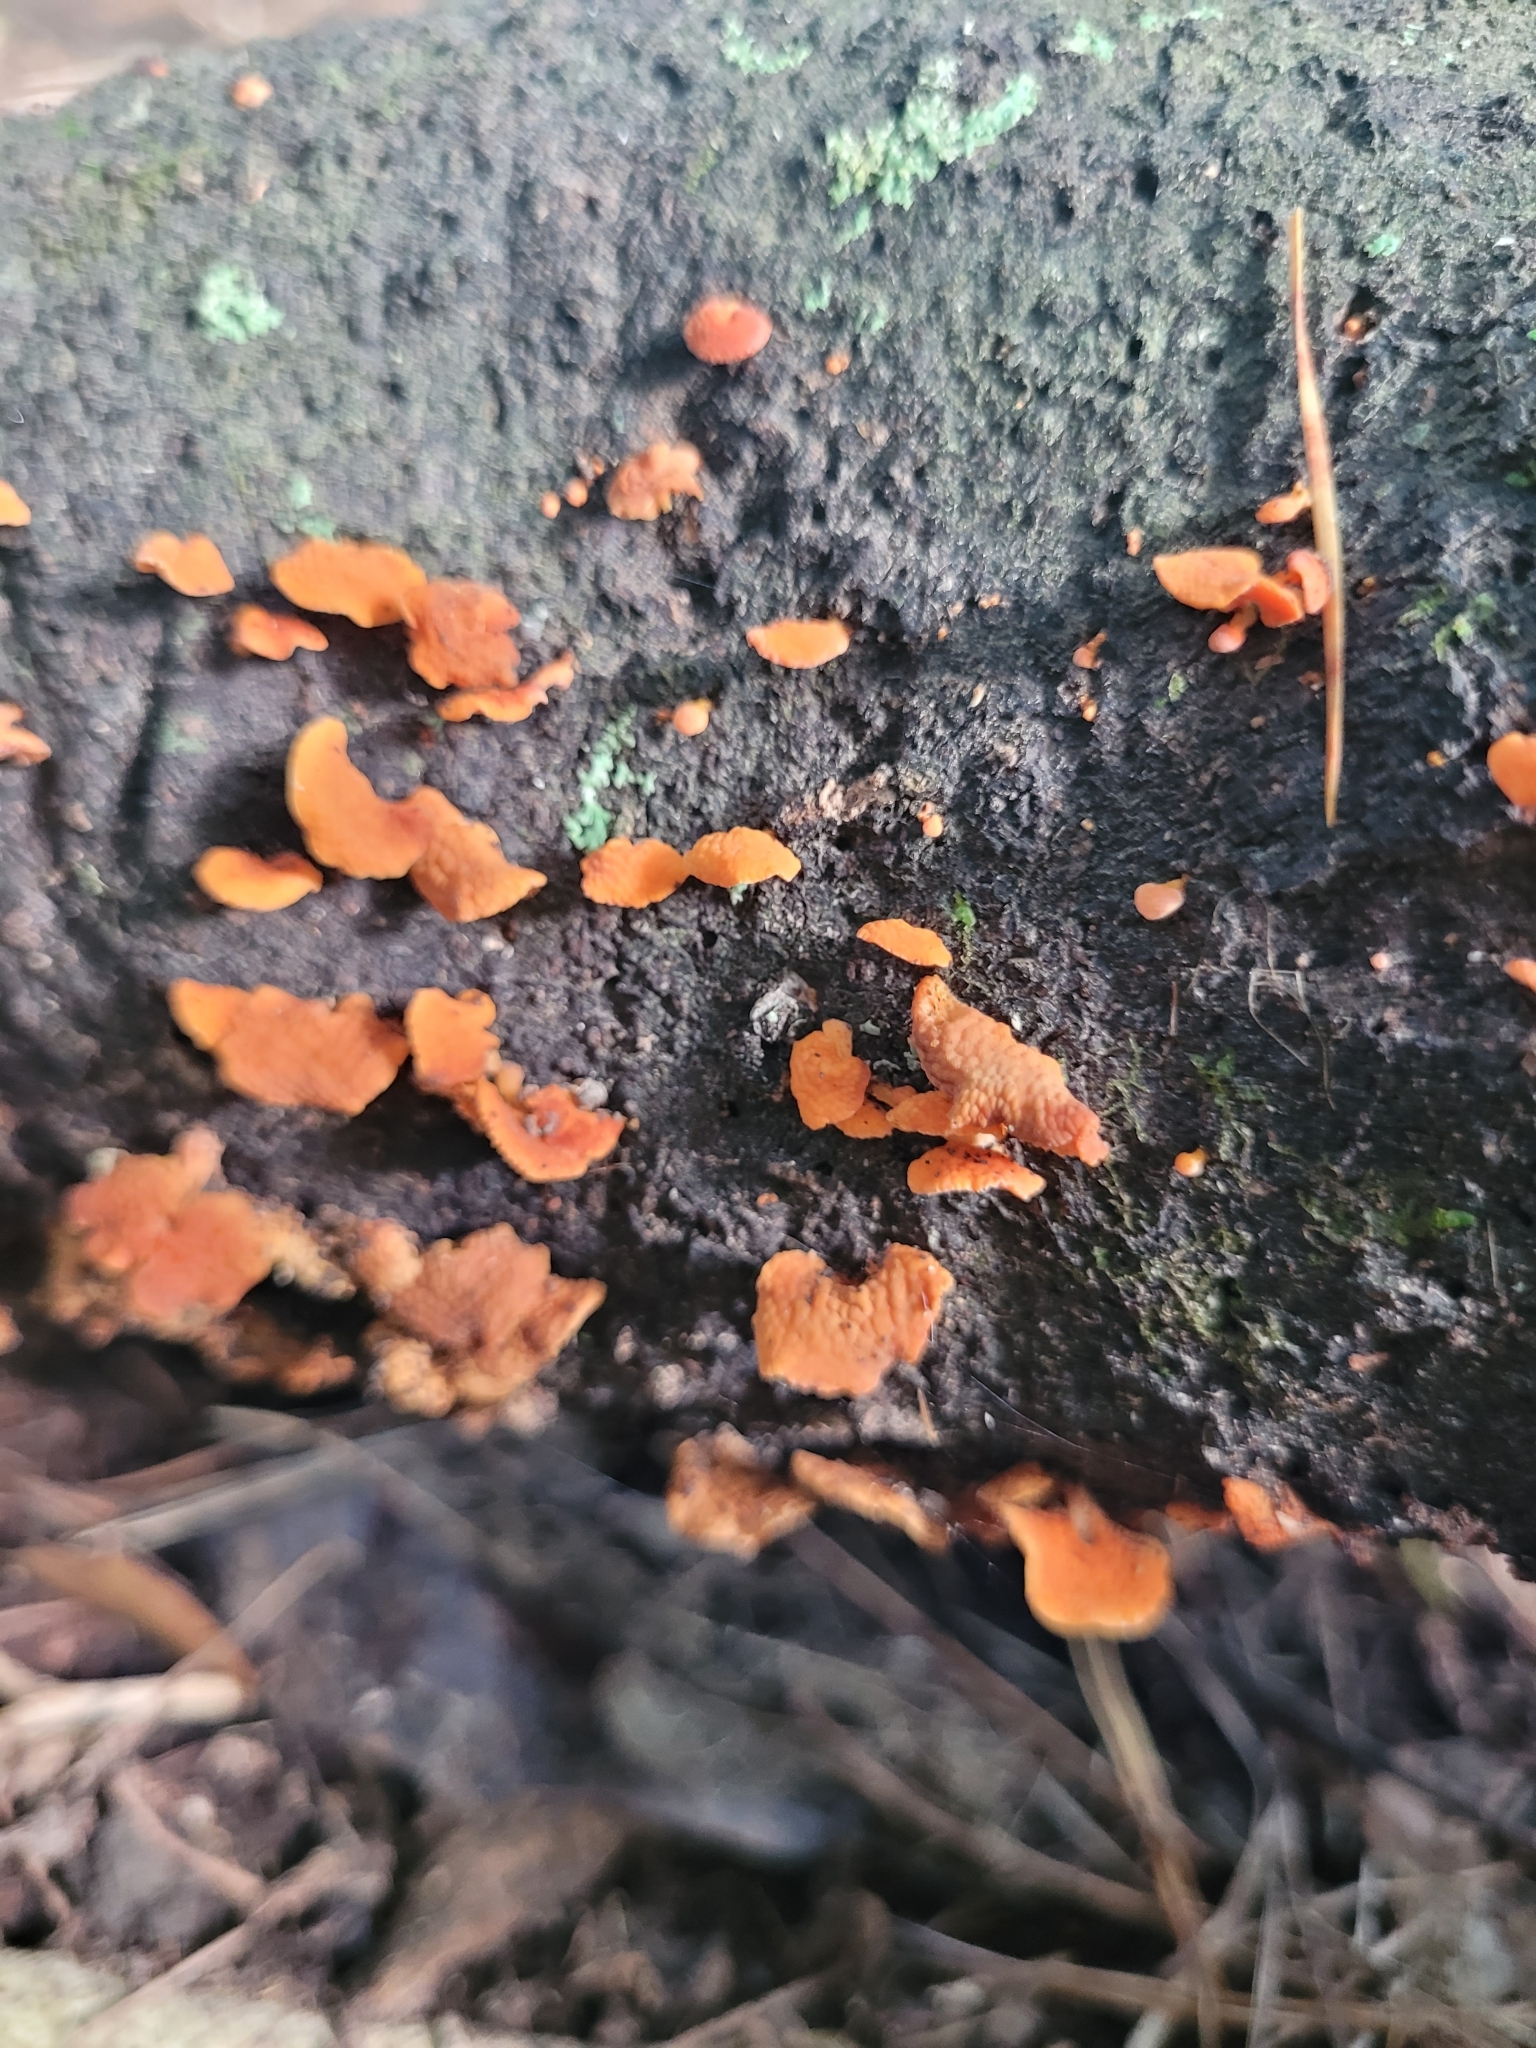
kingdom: Fungi
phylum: Basidiomycota
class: Agaricomycetes
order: Agaricales
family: Mycenaceae
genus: Favolaschia
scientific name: Favolaschia claudopus
